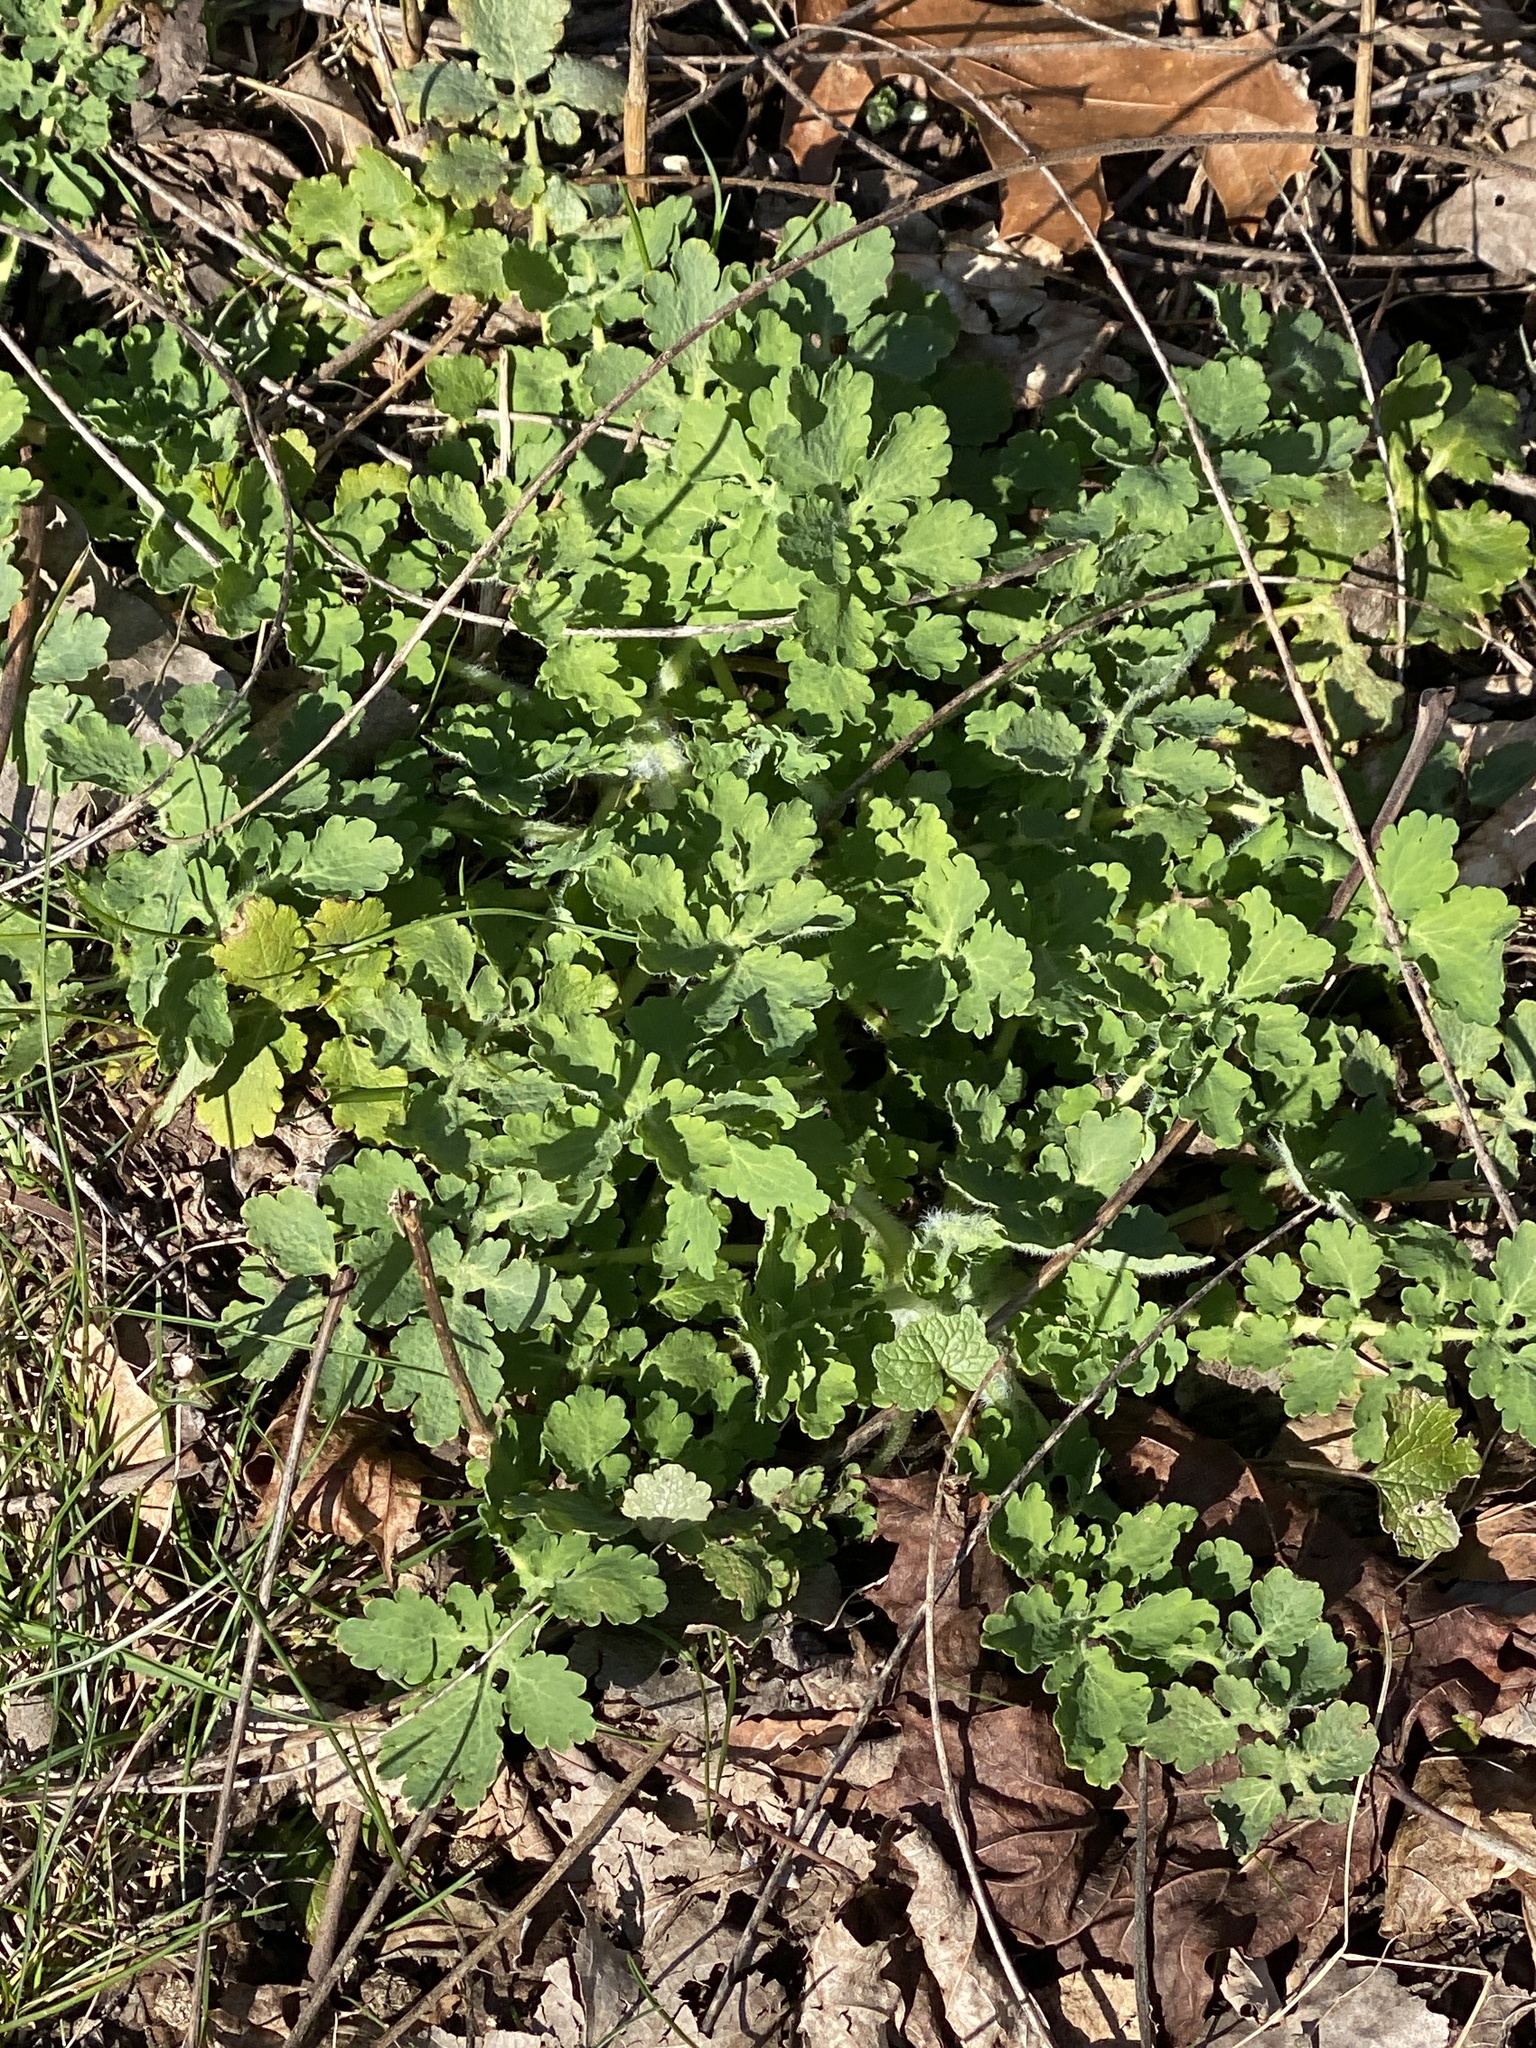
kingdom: Plantae
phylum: Tracheophyta
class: Magnoliopsida
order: Ranunculales
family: Papaveraceae
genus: Chelidonium
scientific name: Chelidonium majus
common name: Greater celandine
